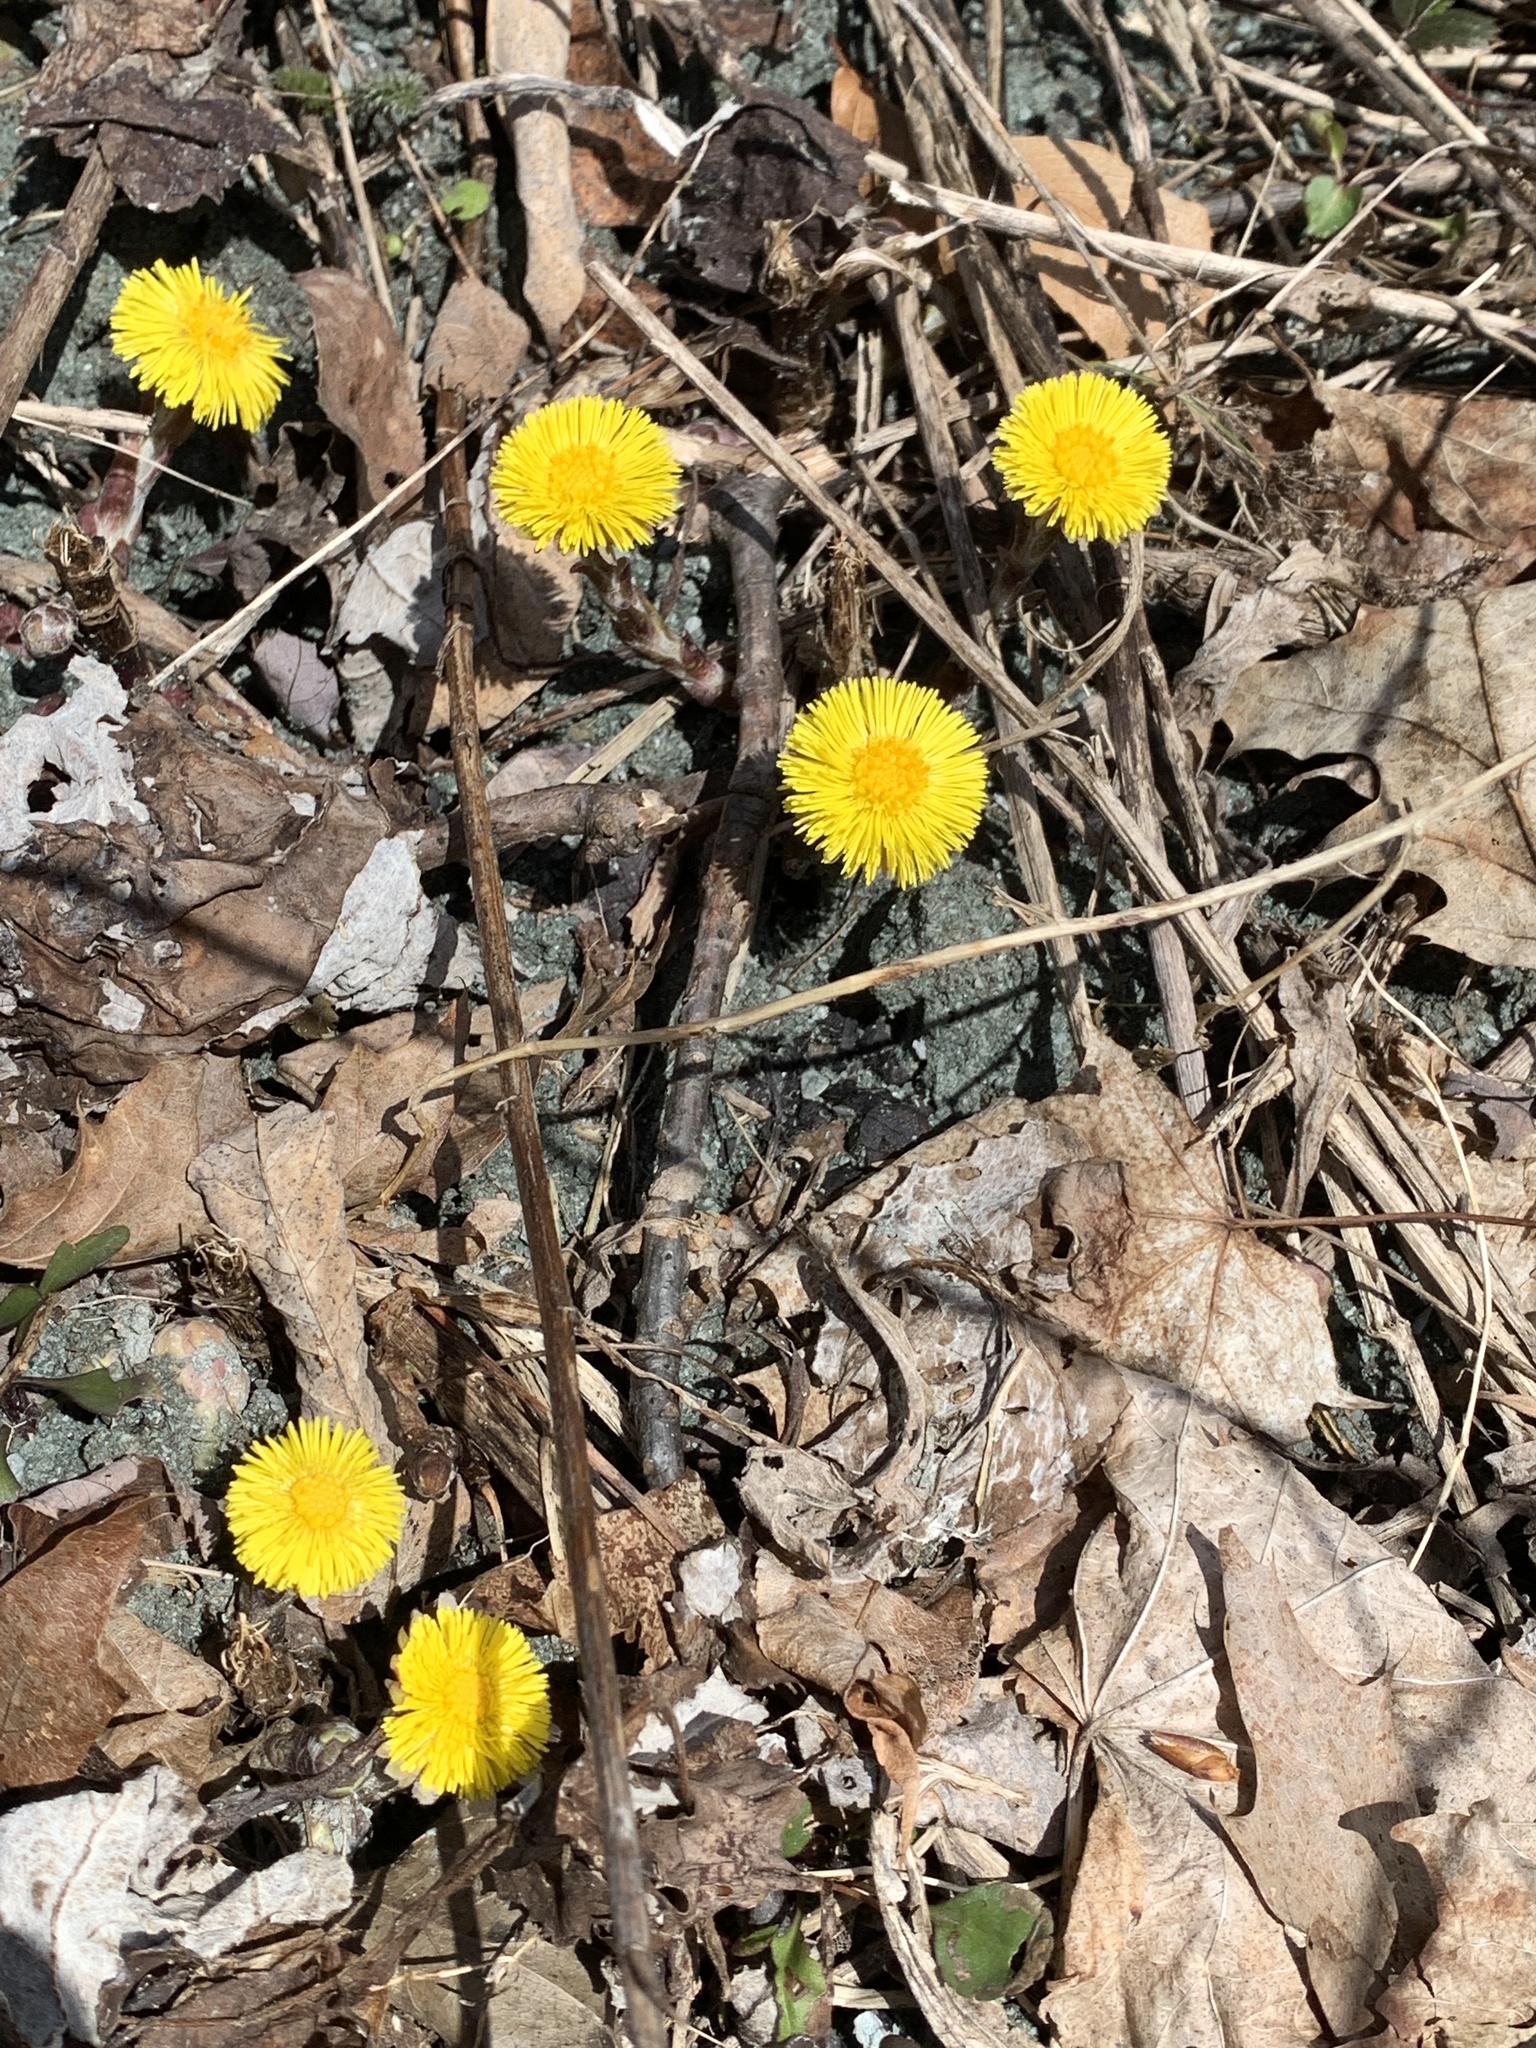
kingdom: Plantae
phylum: Tracheophyta
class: Magnoliopsida
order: Asterales
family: Asteraceae
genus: Tussilago
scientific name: Tussilago farfara
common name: Coltsfoot
